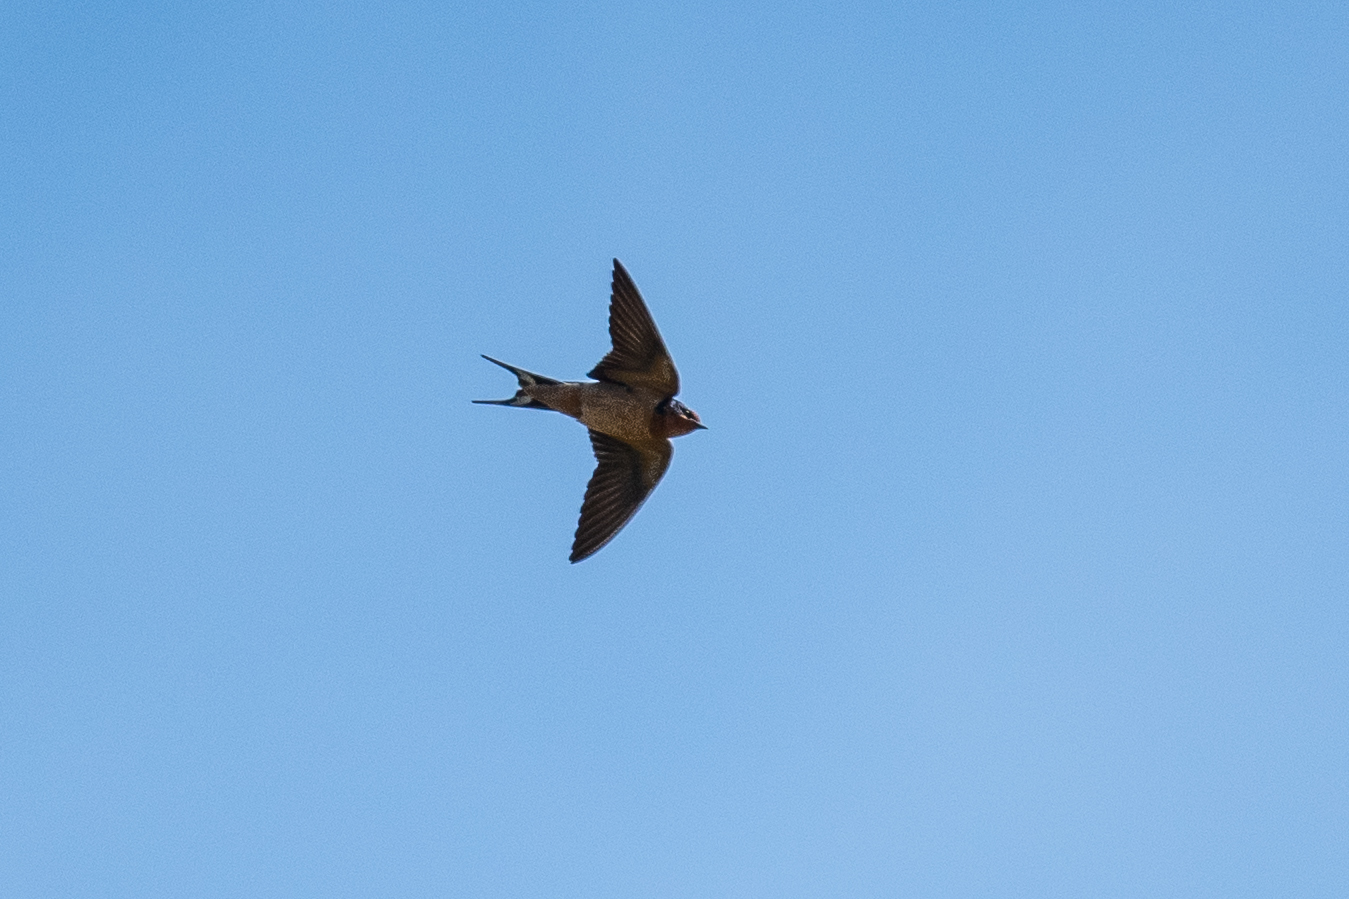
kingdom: Animalia
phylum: Chordata
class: Aves
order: Passeriformes
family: Hirundinidae
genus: Hirundo
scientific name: Hirundo rustica
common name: Barn swallow
